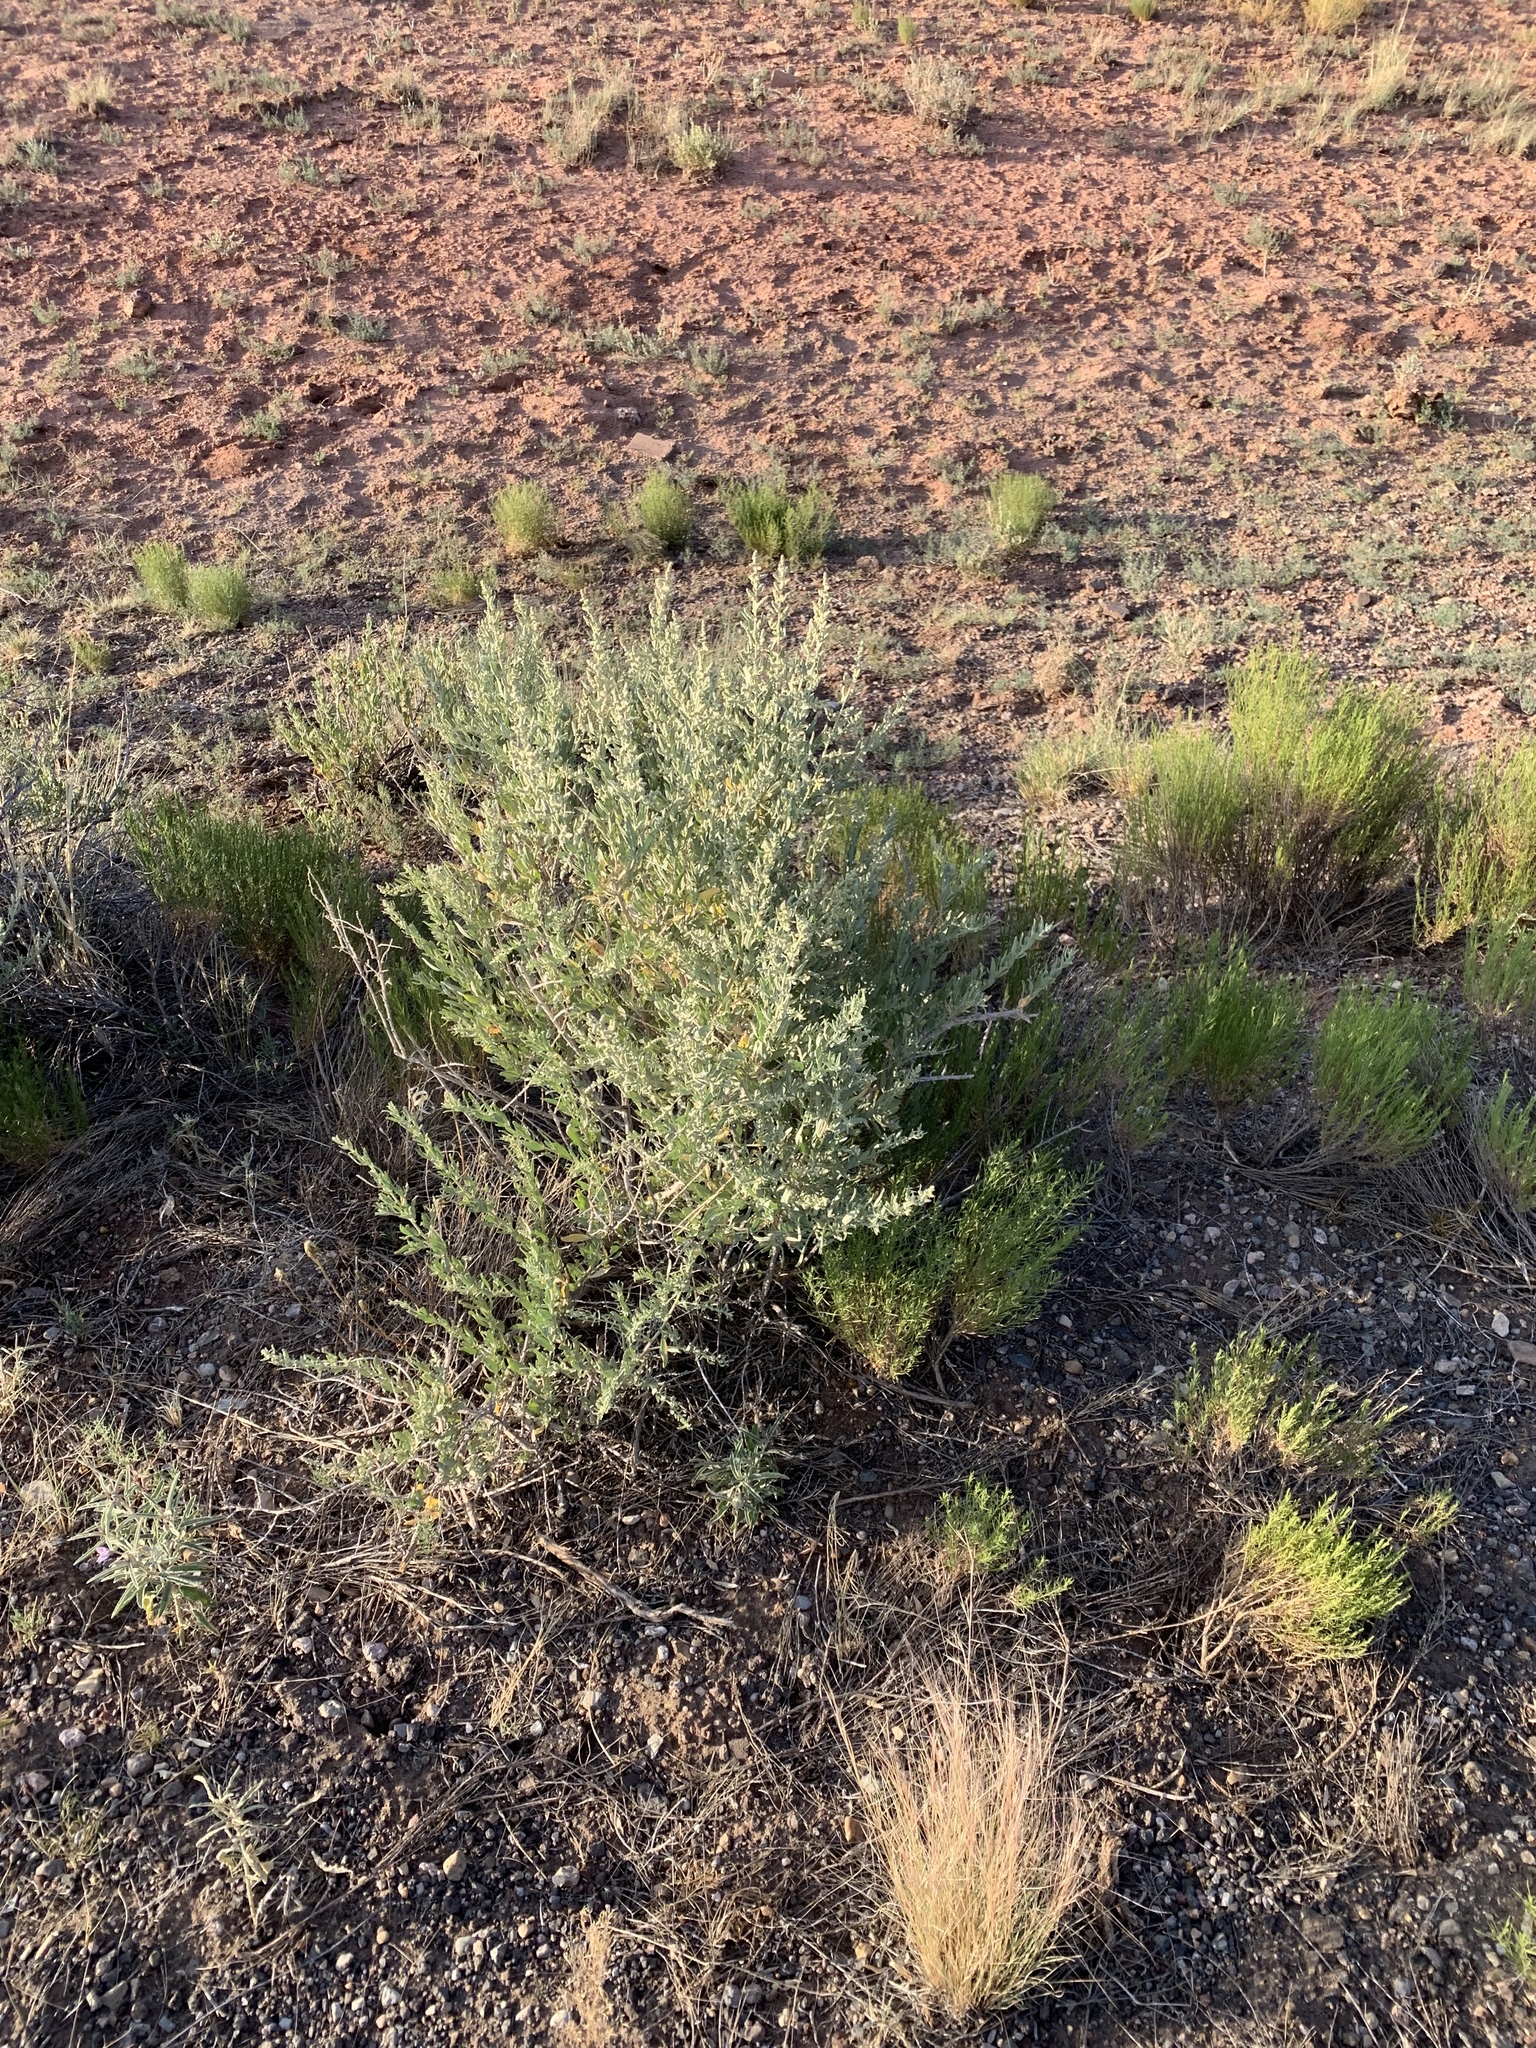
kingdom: Plantae
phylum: Tracheophyta
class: Magnoliopsida
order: Caryophyllales
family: Amaranthaceae
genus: Atriplex
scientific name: Atriplex canescens
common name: Four-wing saltbush
